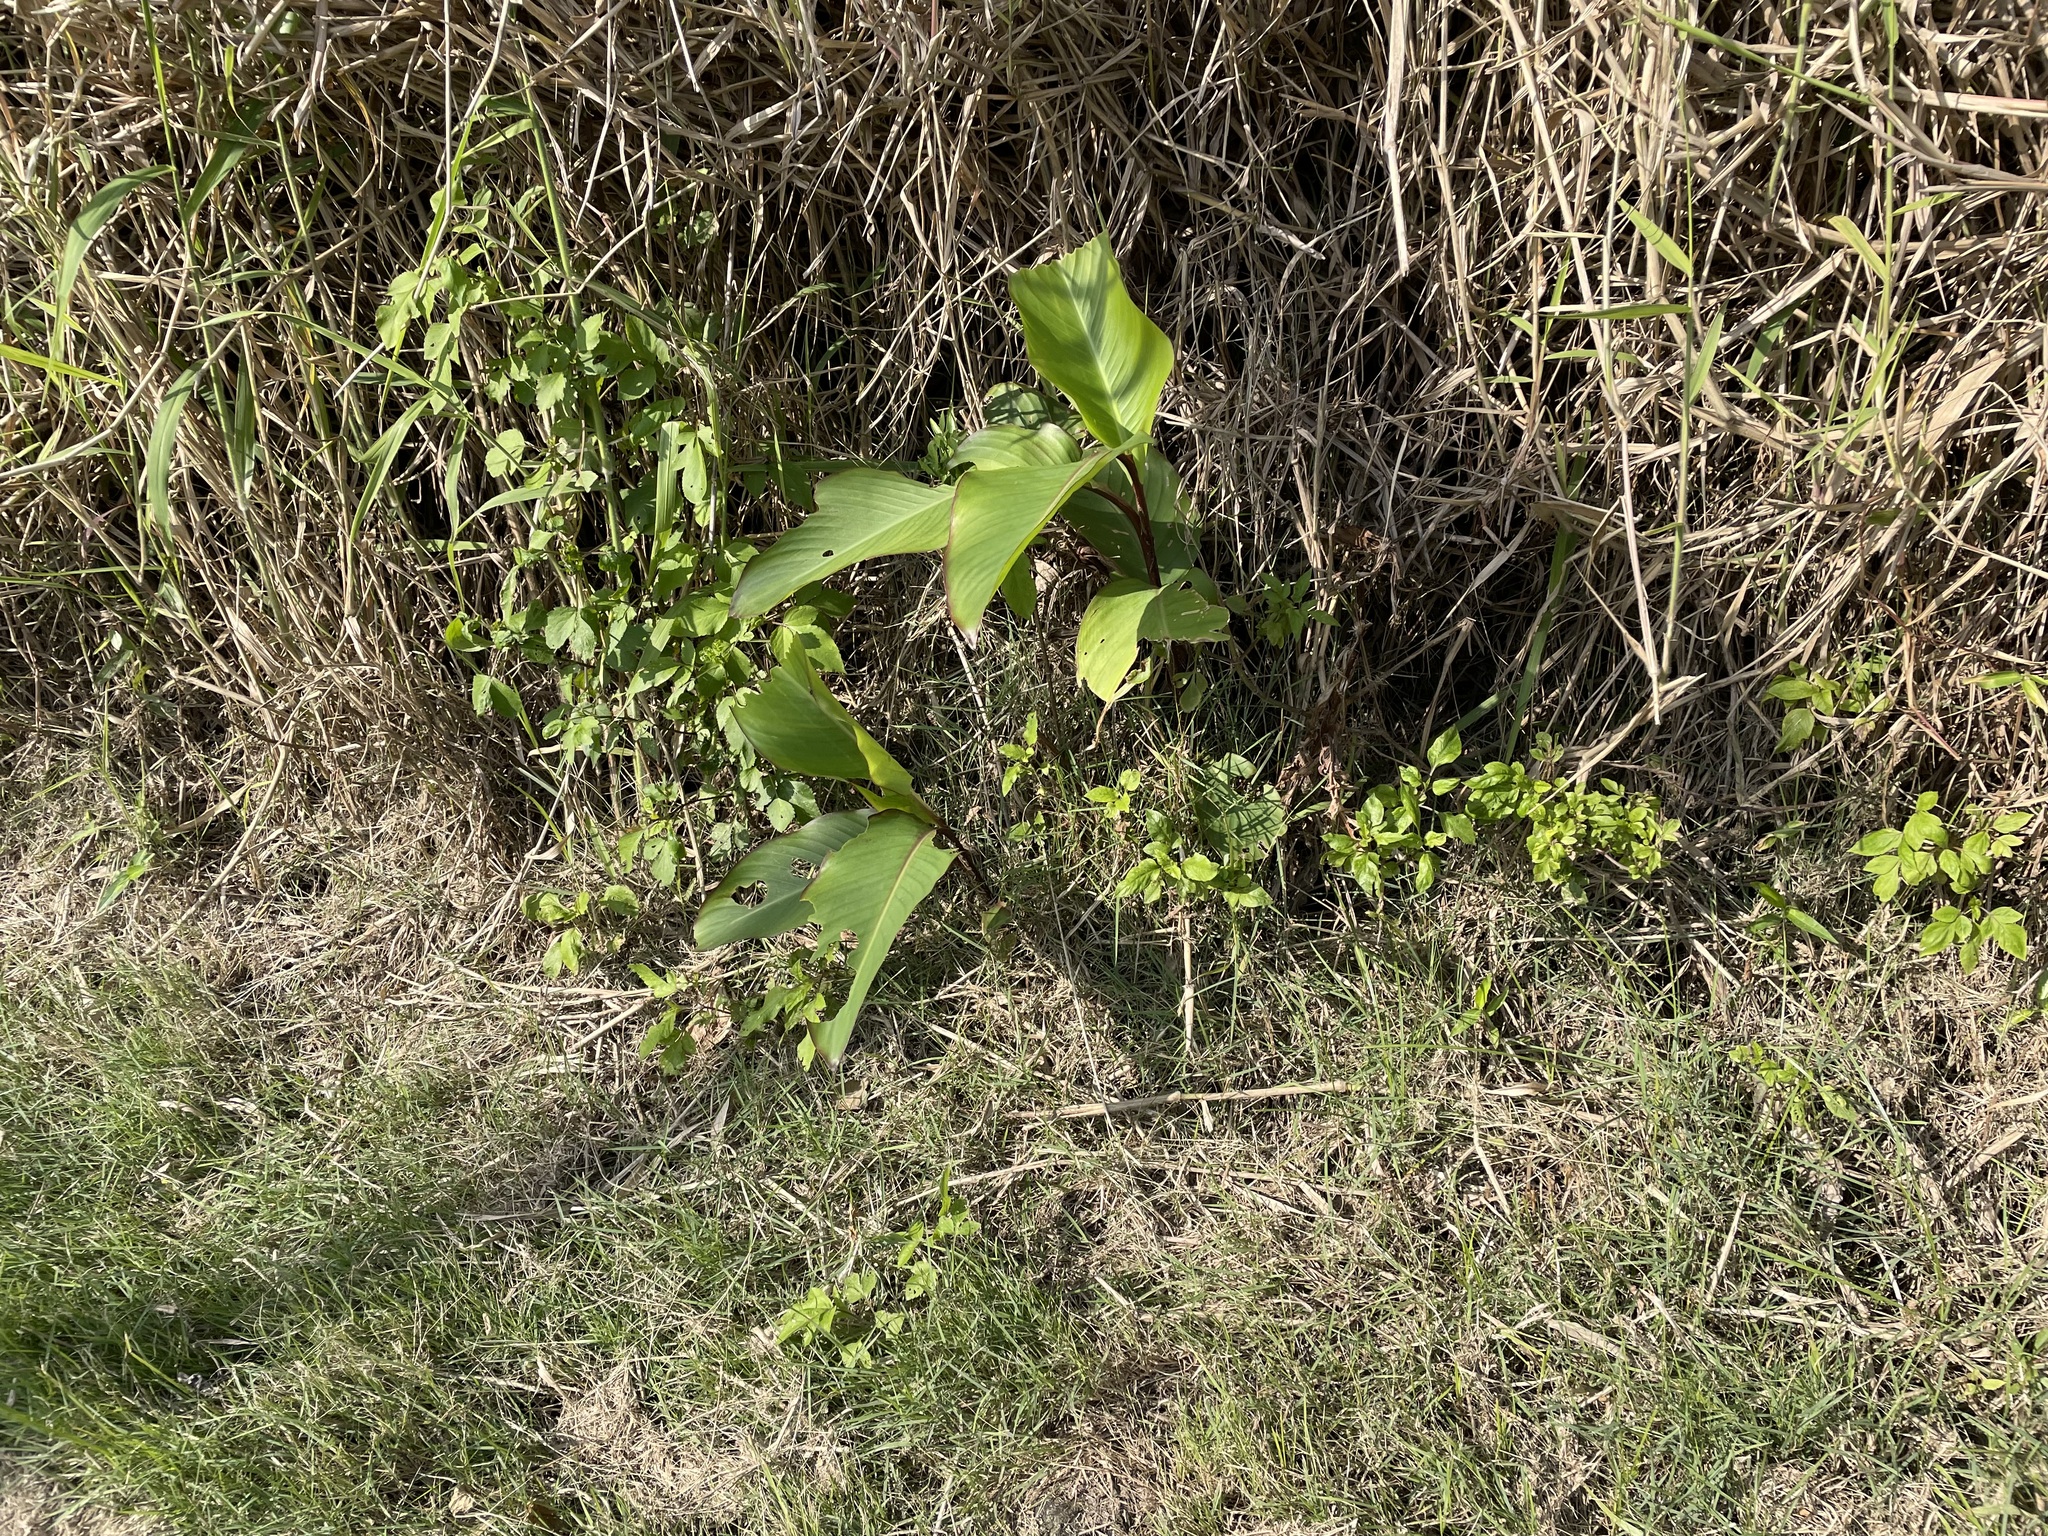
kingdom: Plantae
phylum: Tracheophyta
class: Liliopsida
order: Zingiberales
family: Cannaceae
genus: Canna
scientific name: Canna indica
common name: Indian shot
